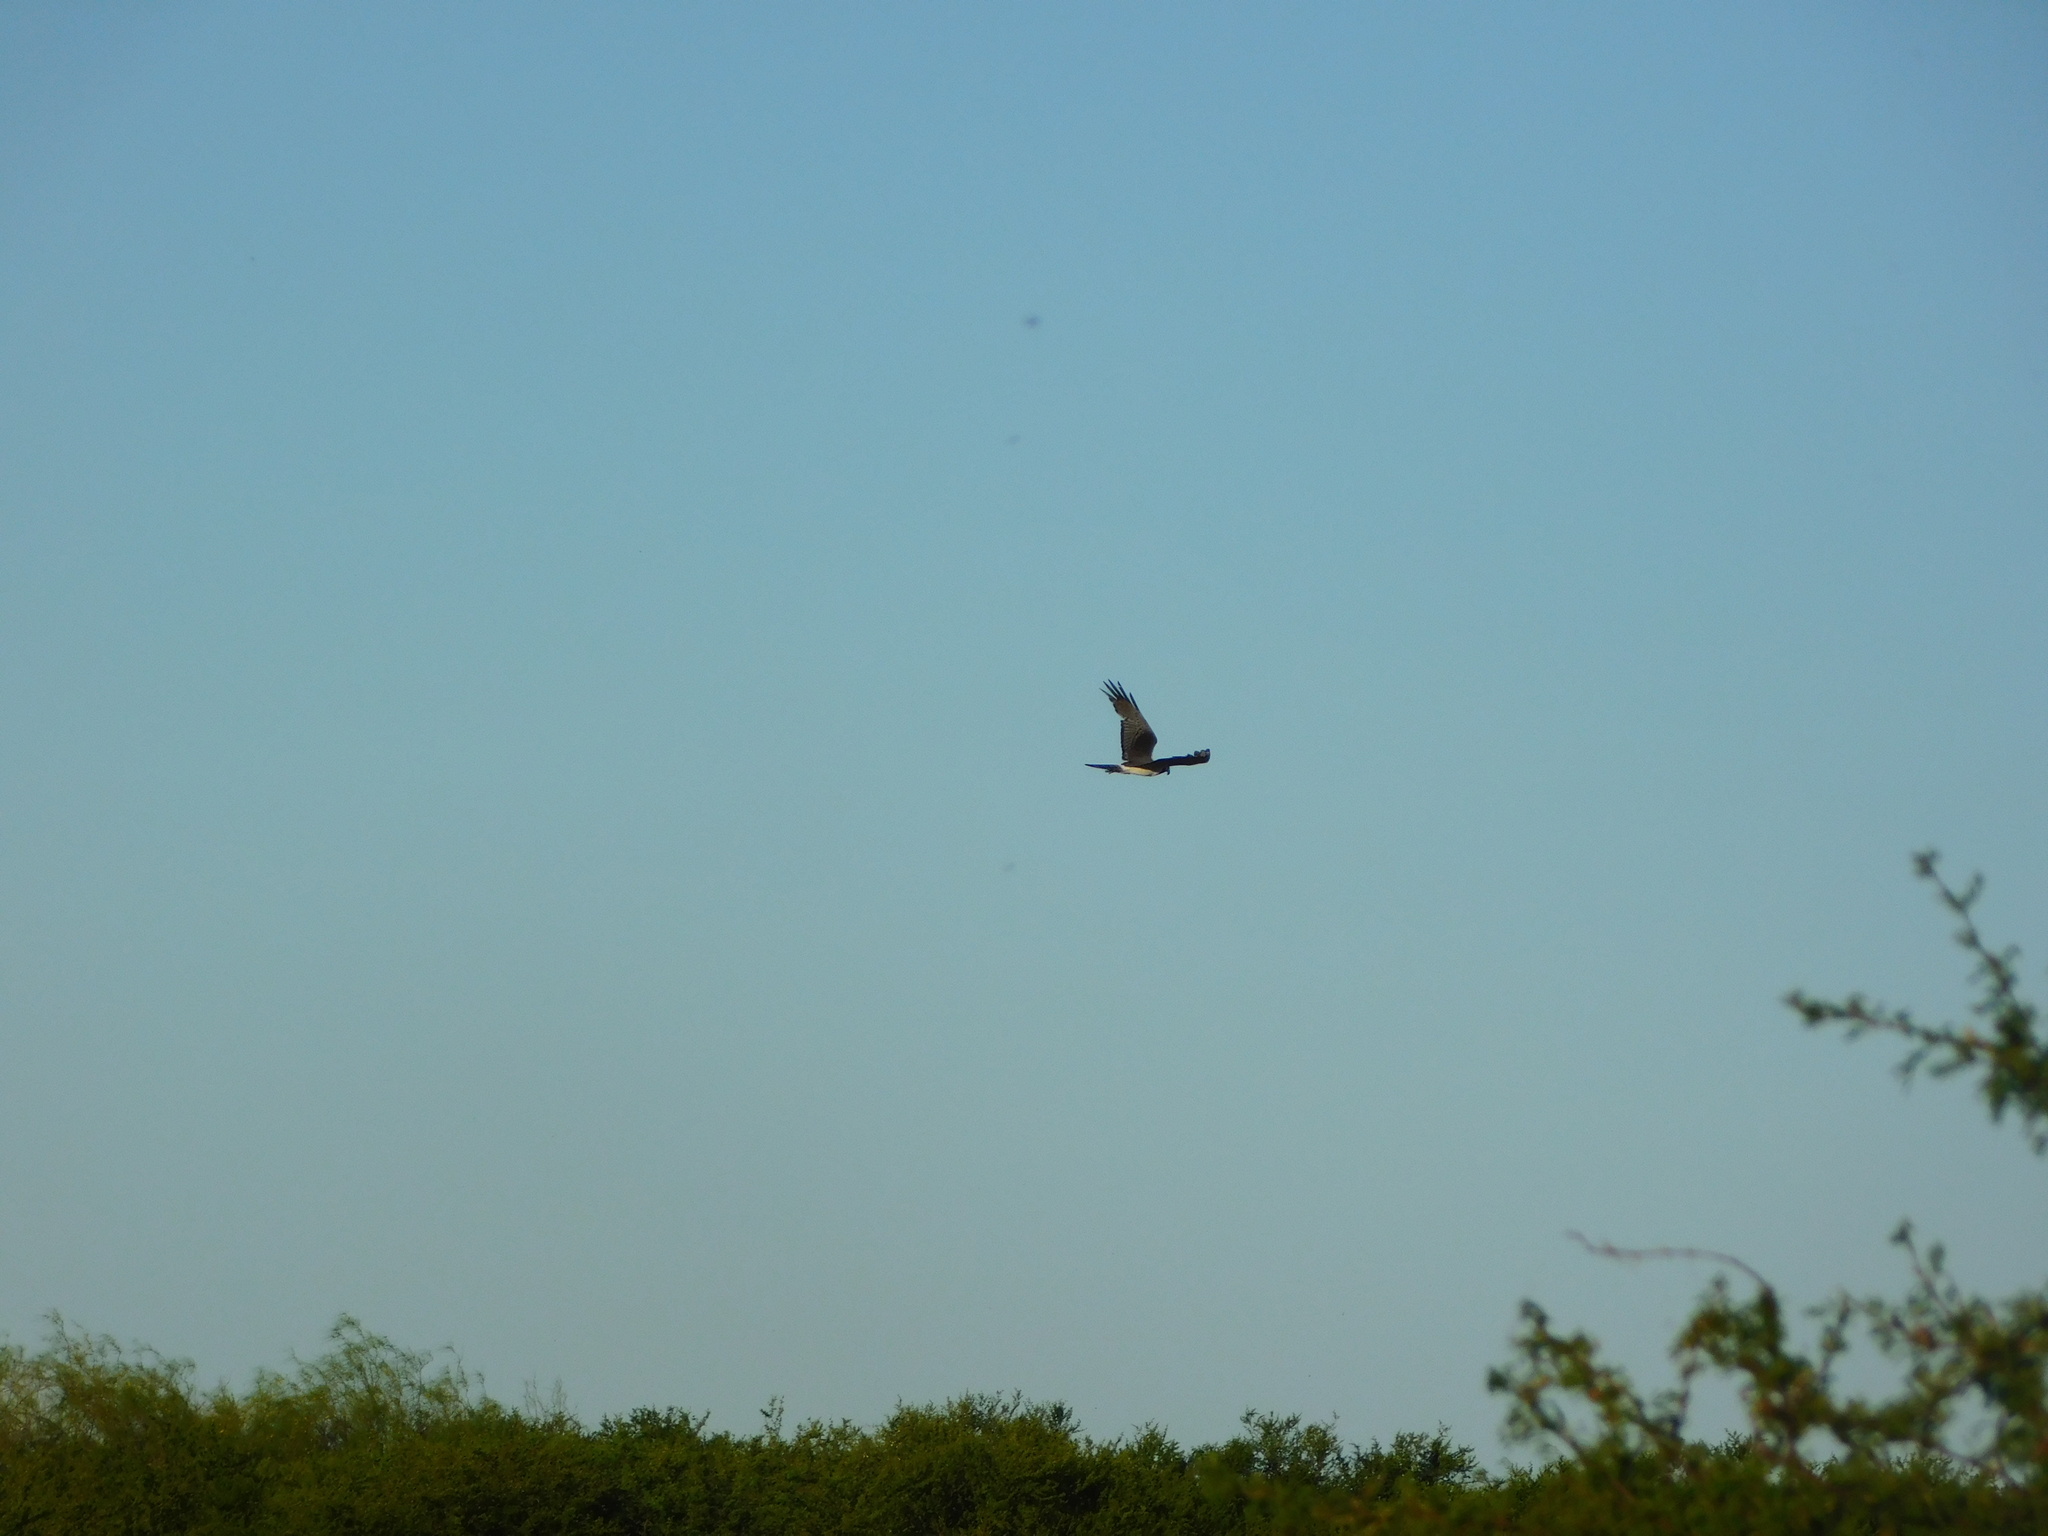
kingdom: Animalia
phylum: Chordata
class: Aves
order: Accipitriformes
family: Accipitridae
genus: Circus
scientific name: Circus buffoni
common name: Long-winged harrier
